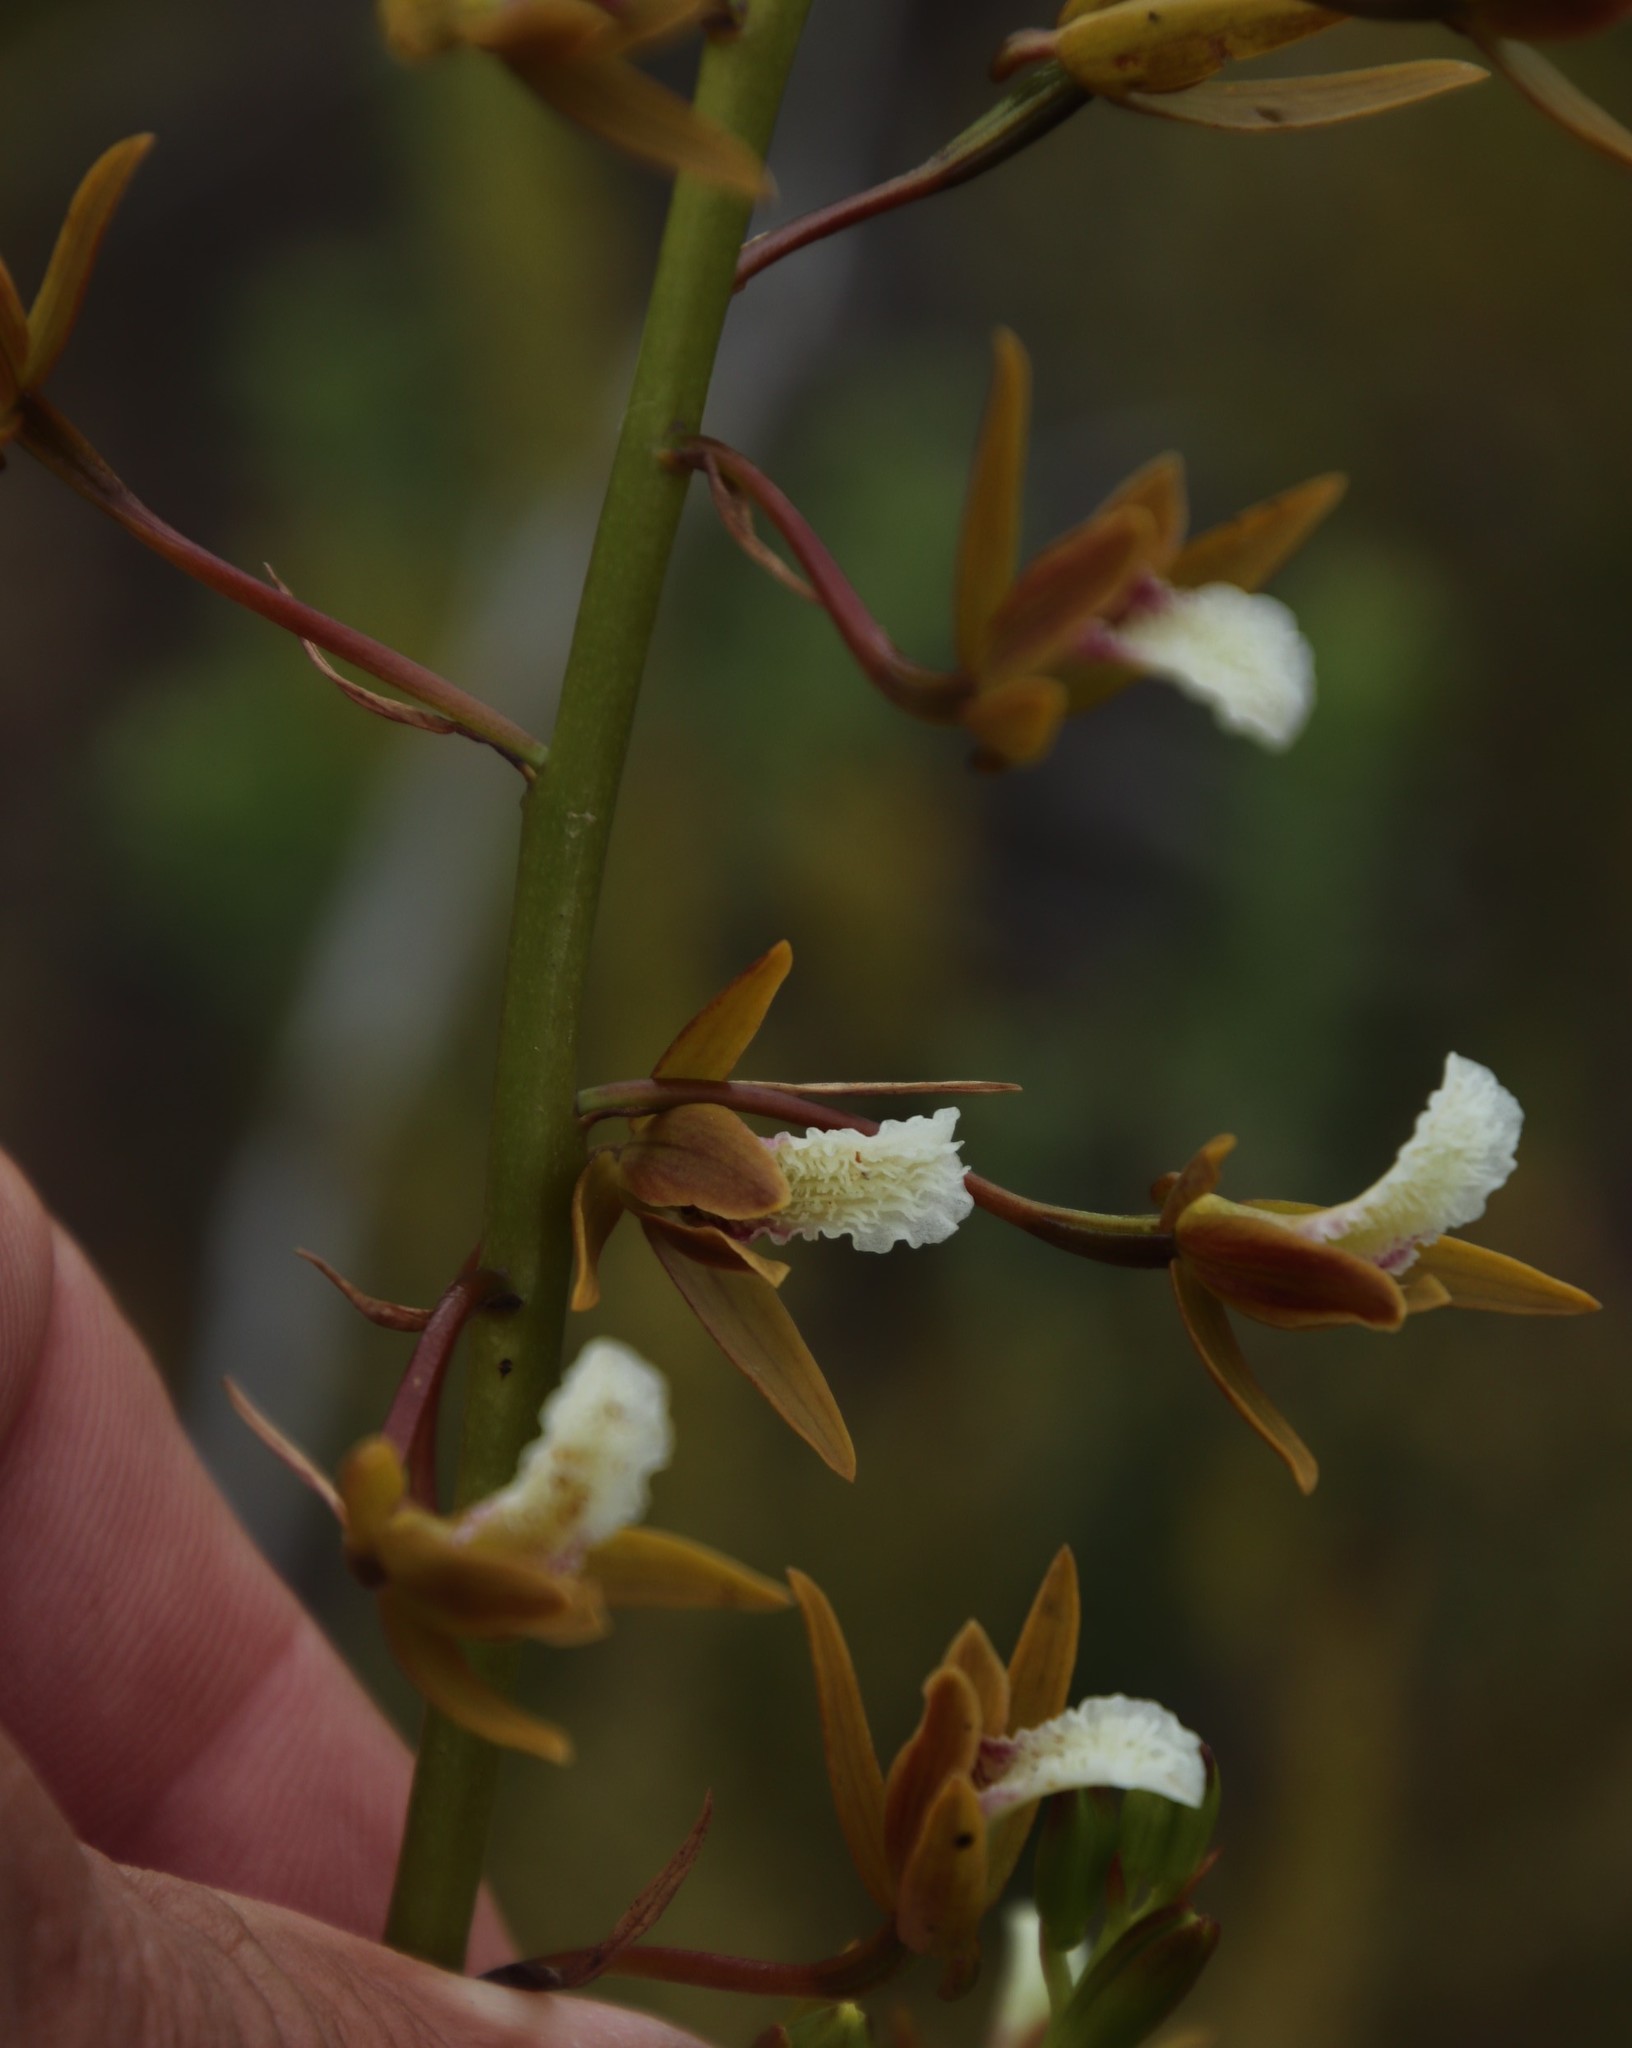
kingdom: Plantae
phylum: Tracheophyta
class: Liliopsida
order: Asparagales
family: Orchidaceae
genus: Eulophia
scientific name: Eulophia tristis
